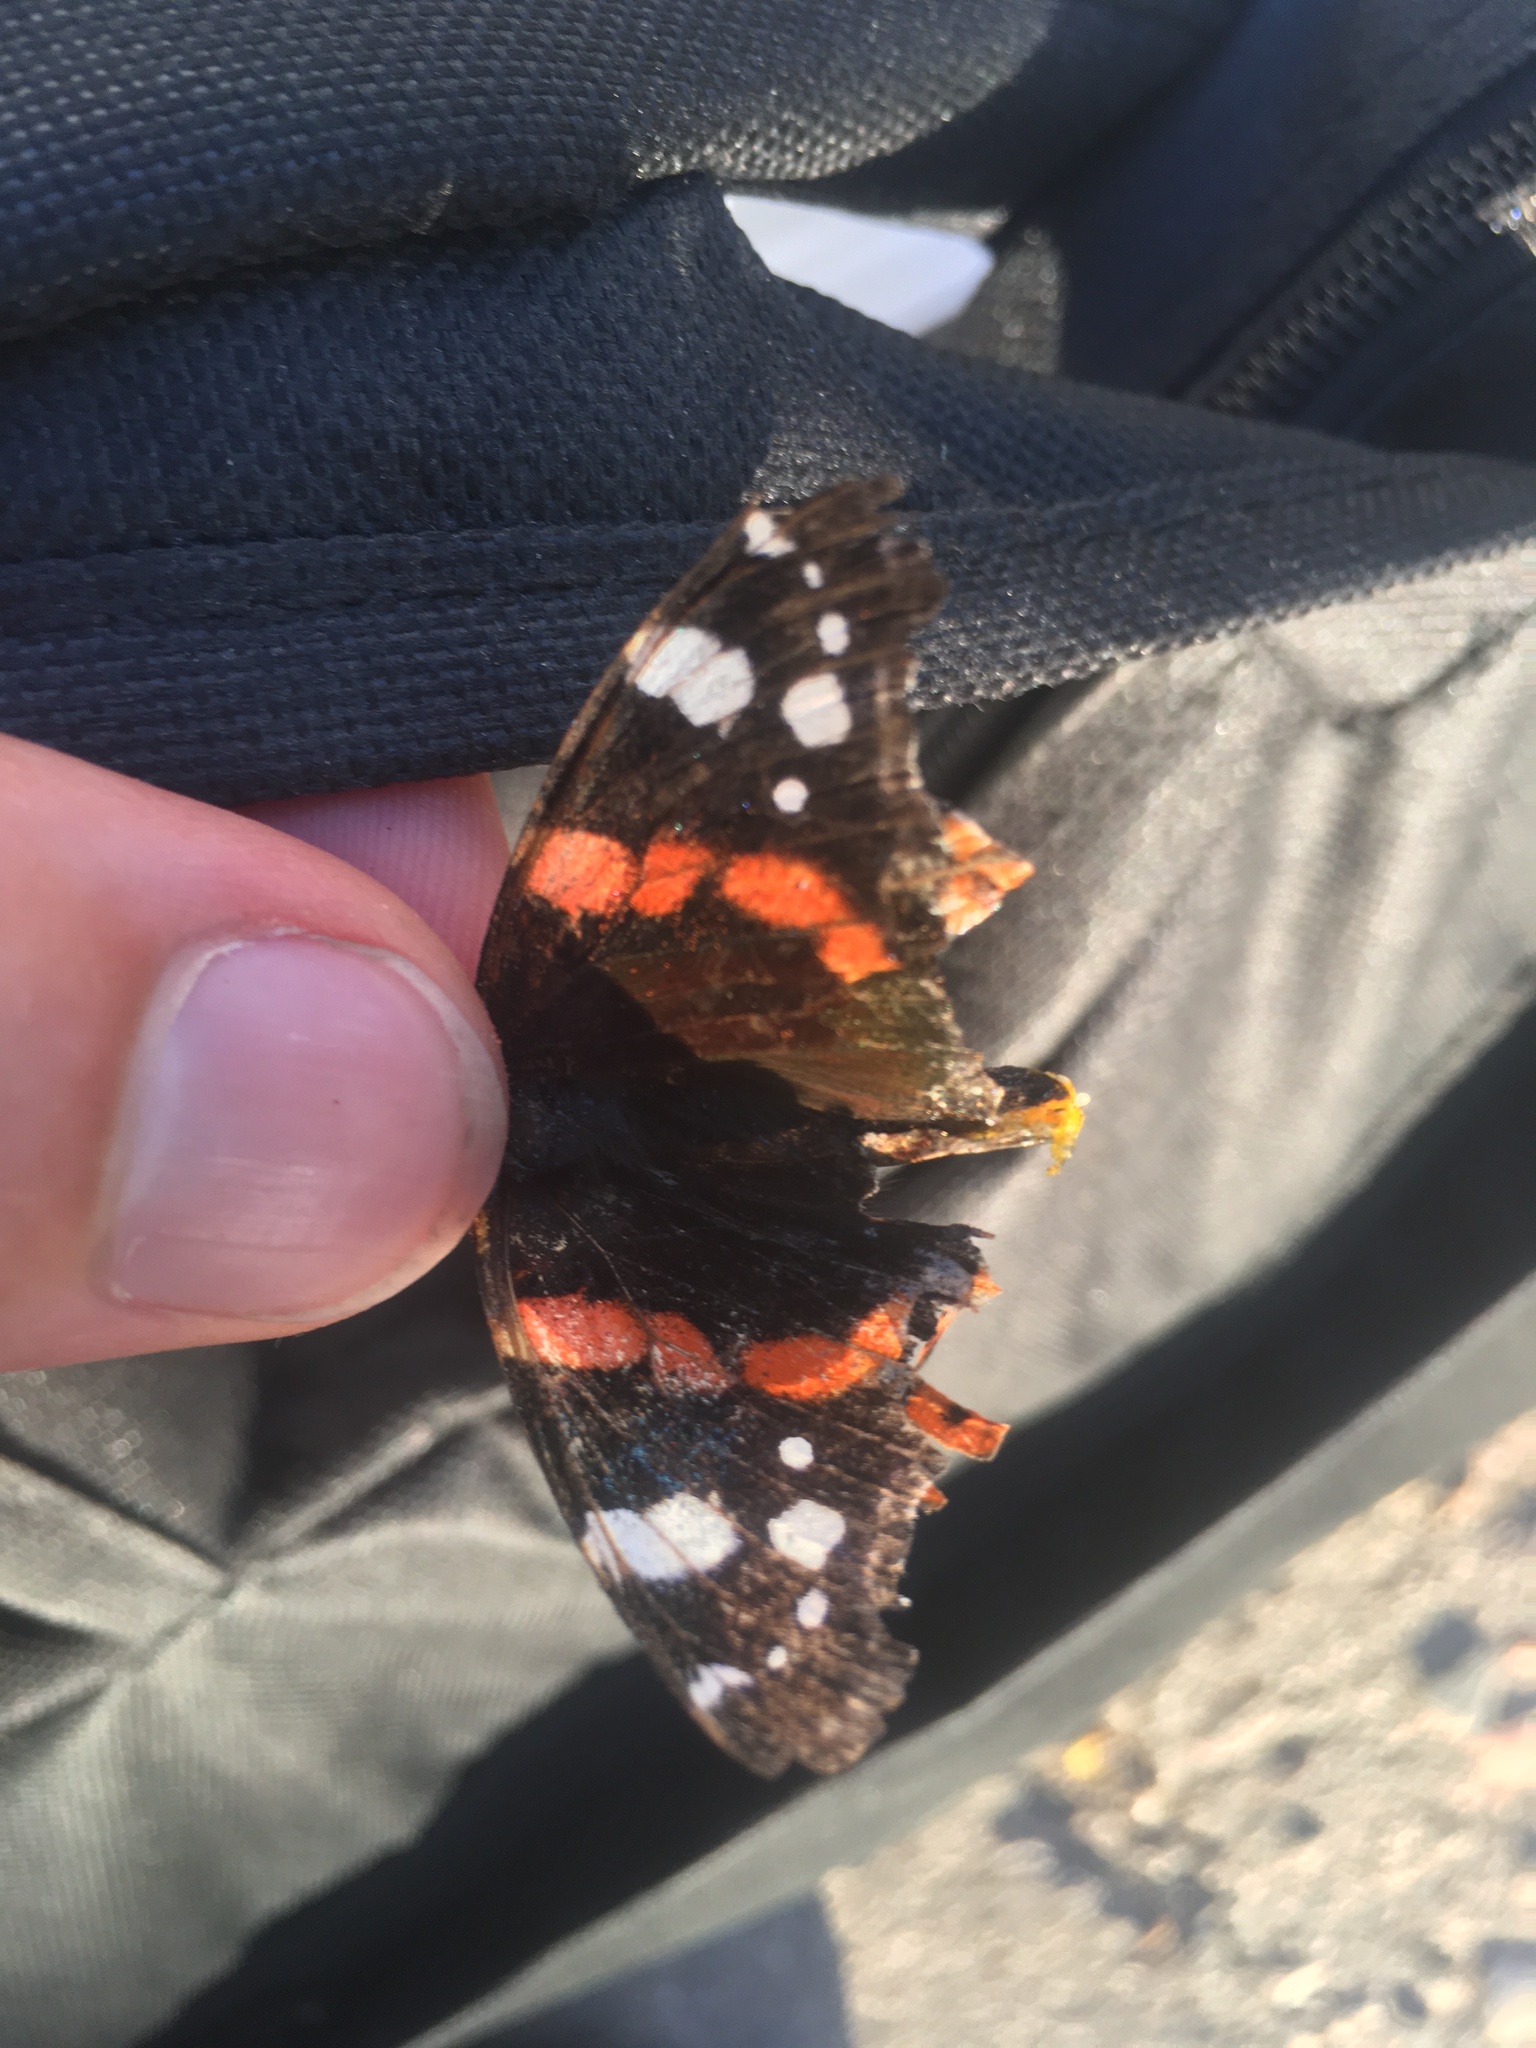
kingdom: Animalia
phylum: Arthropoda
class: Insecta
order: Lepidoptera
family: Nymphalidae
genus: Vanessa
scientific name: Vanessa atalanta
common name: Red admiral
